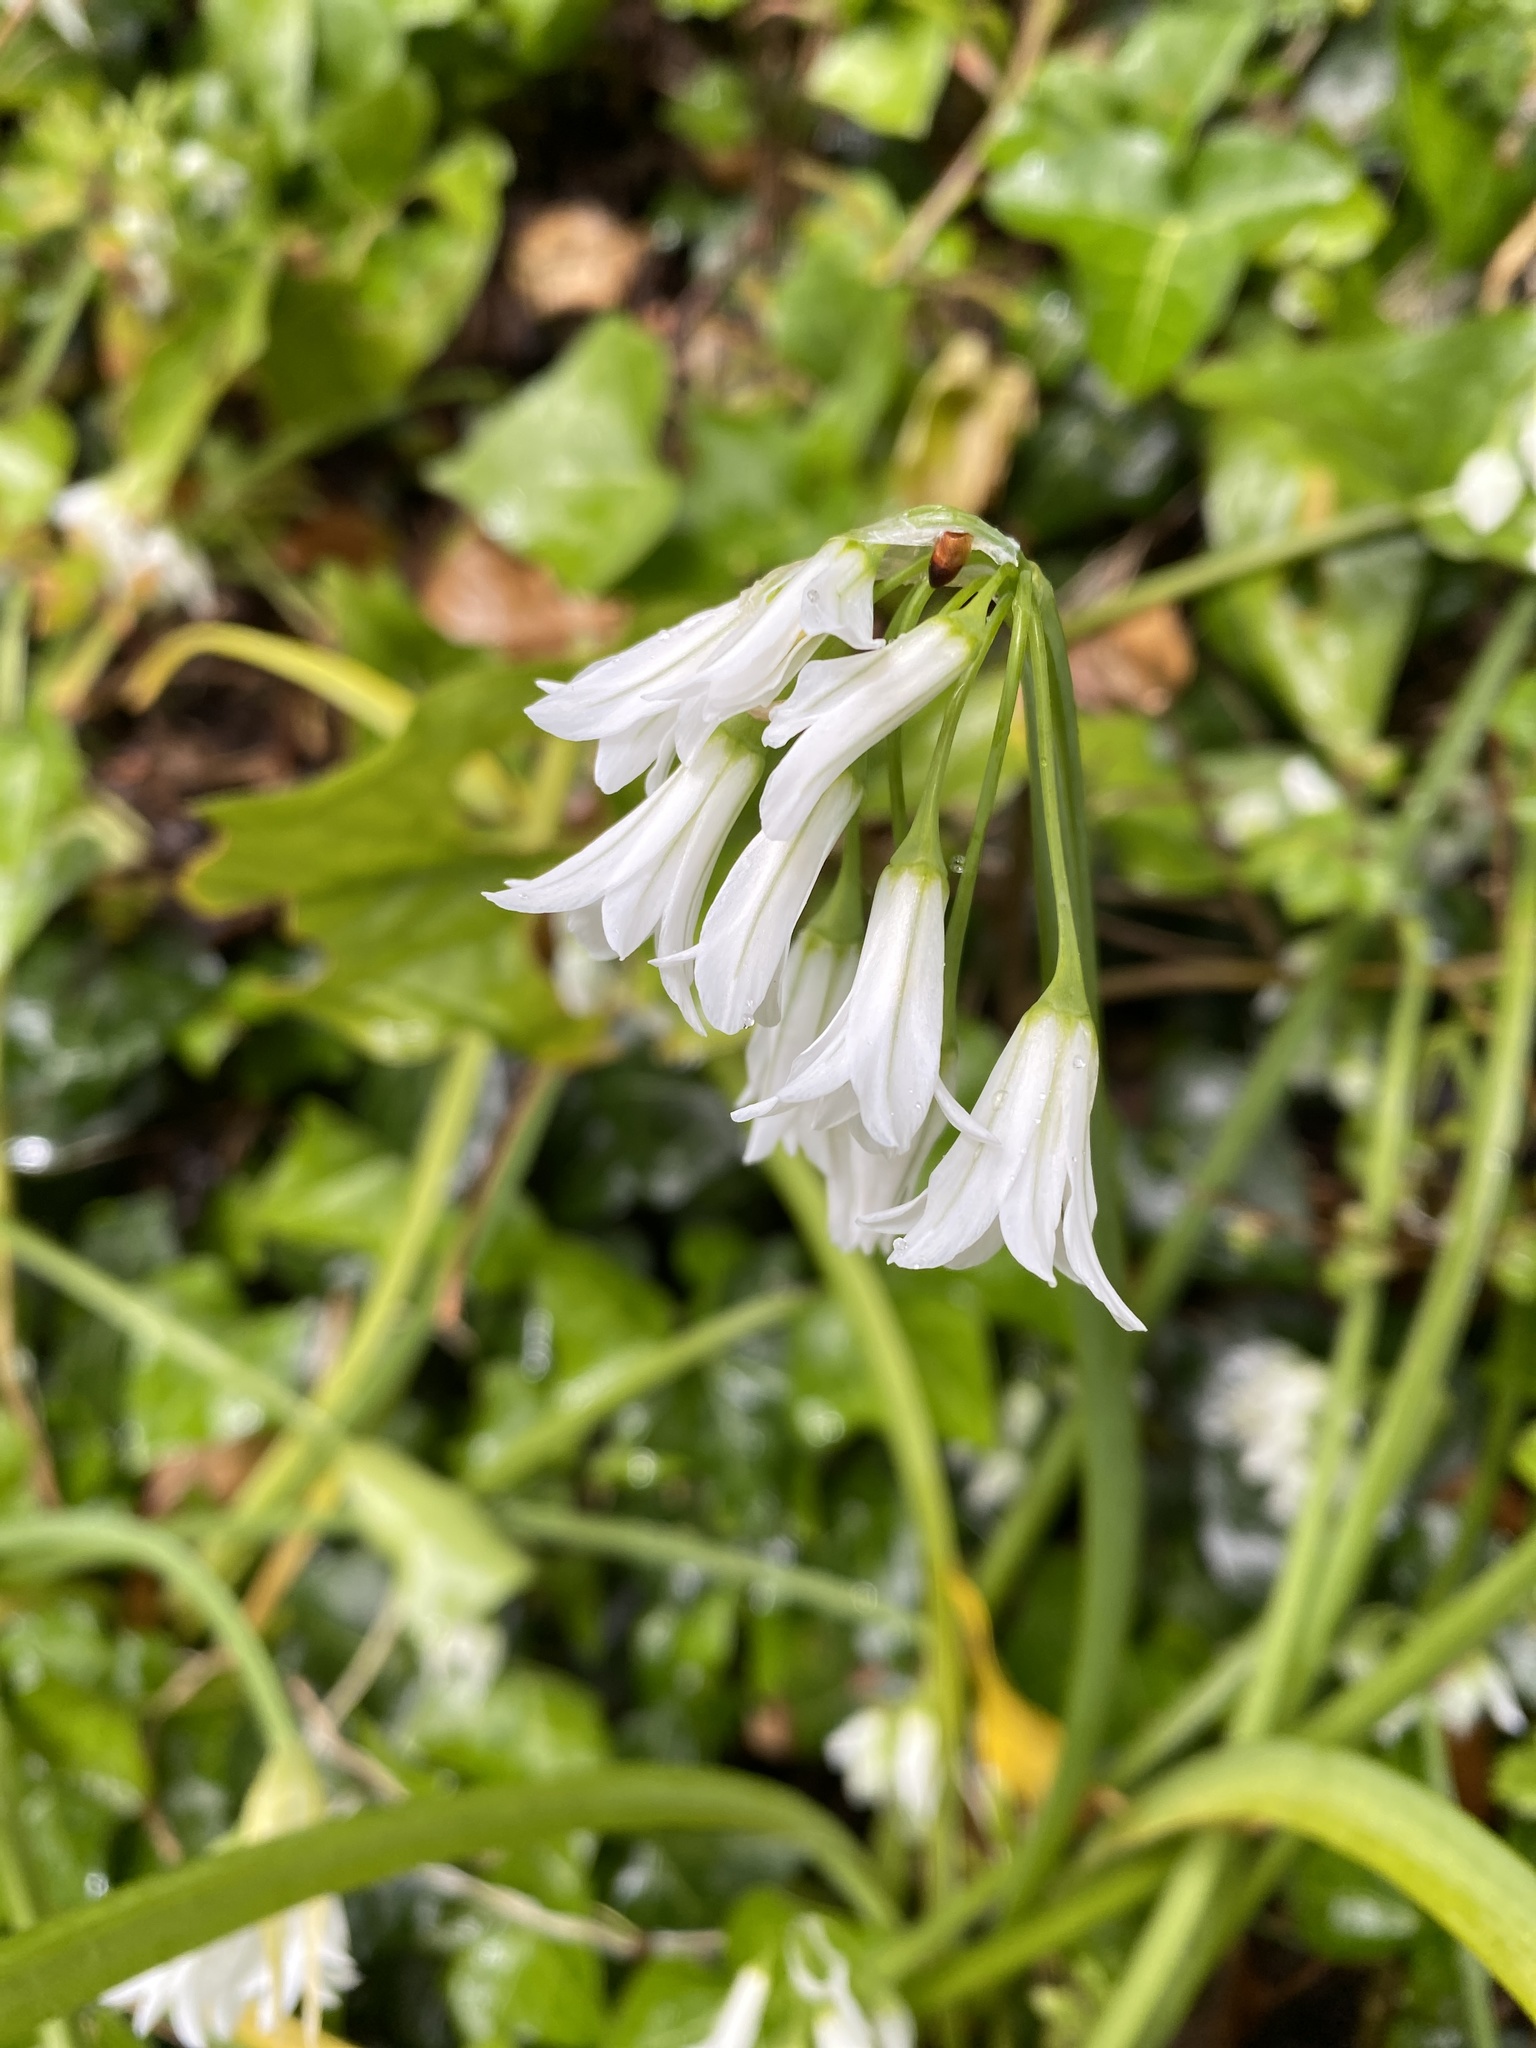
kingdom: Plantae
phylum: Tracheophyta
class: Liliopsida
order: Asparagales
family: Amaryllidaceae
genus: Allium
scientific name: Allium triquetrum
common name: Three-cornered garlic
